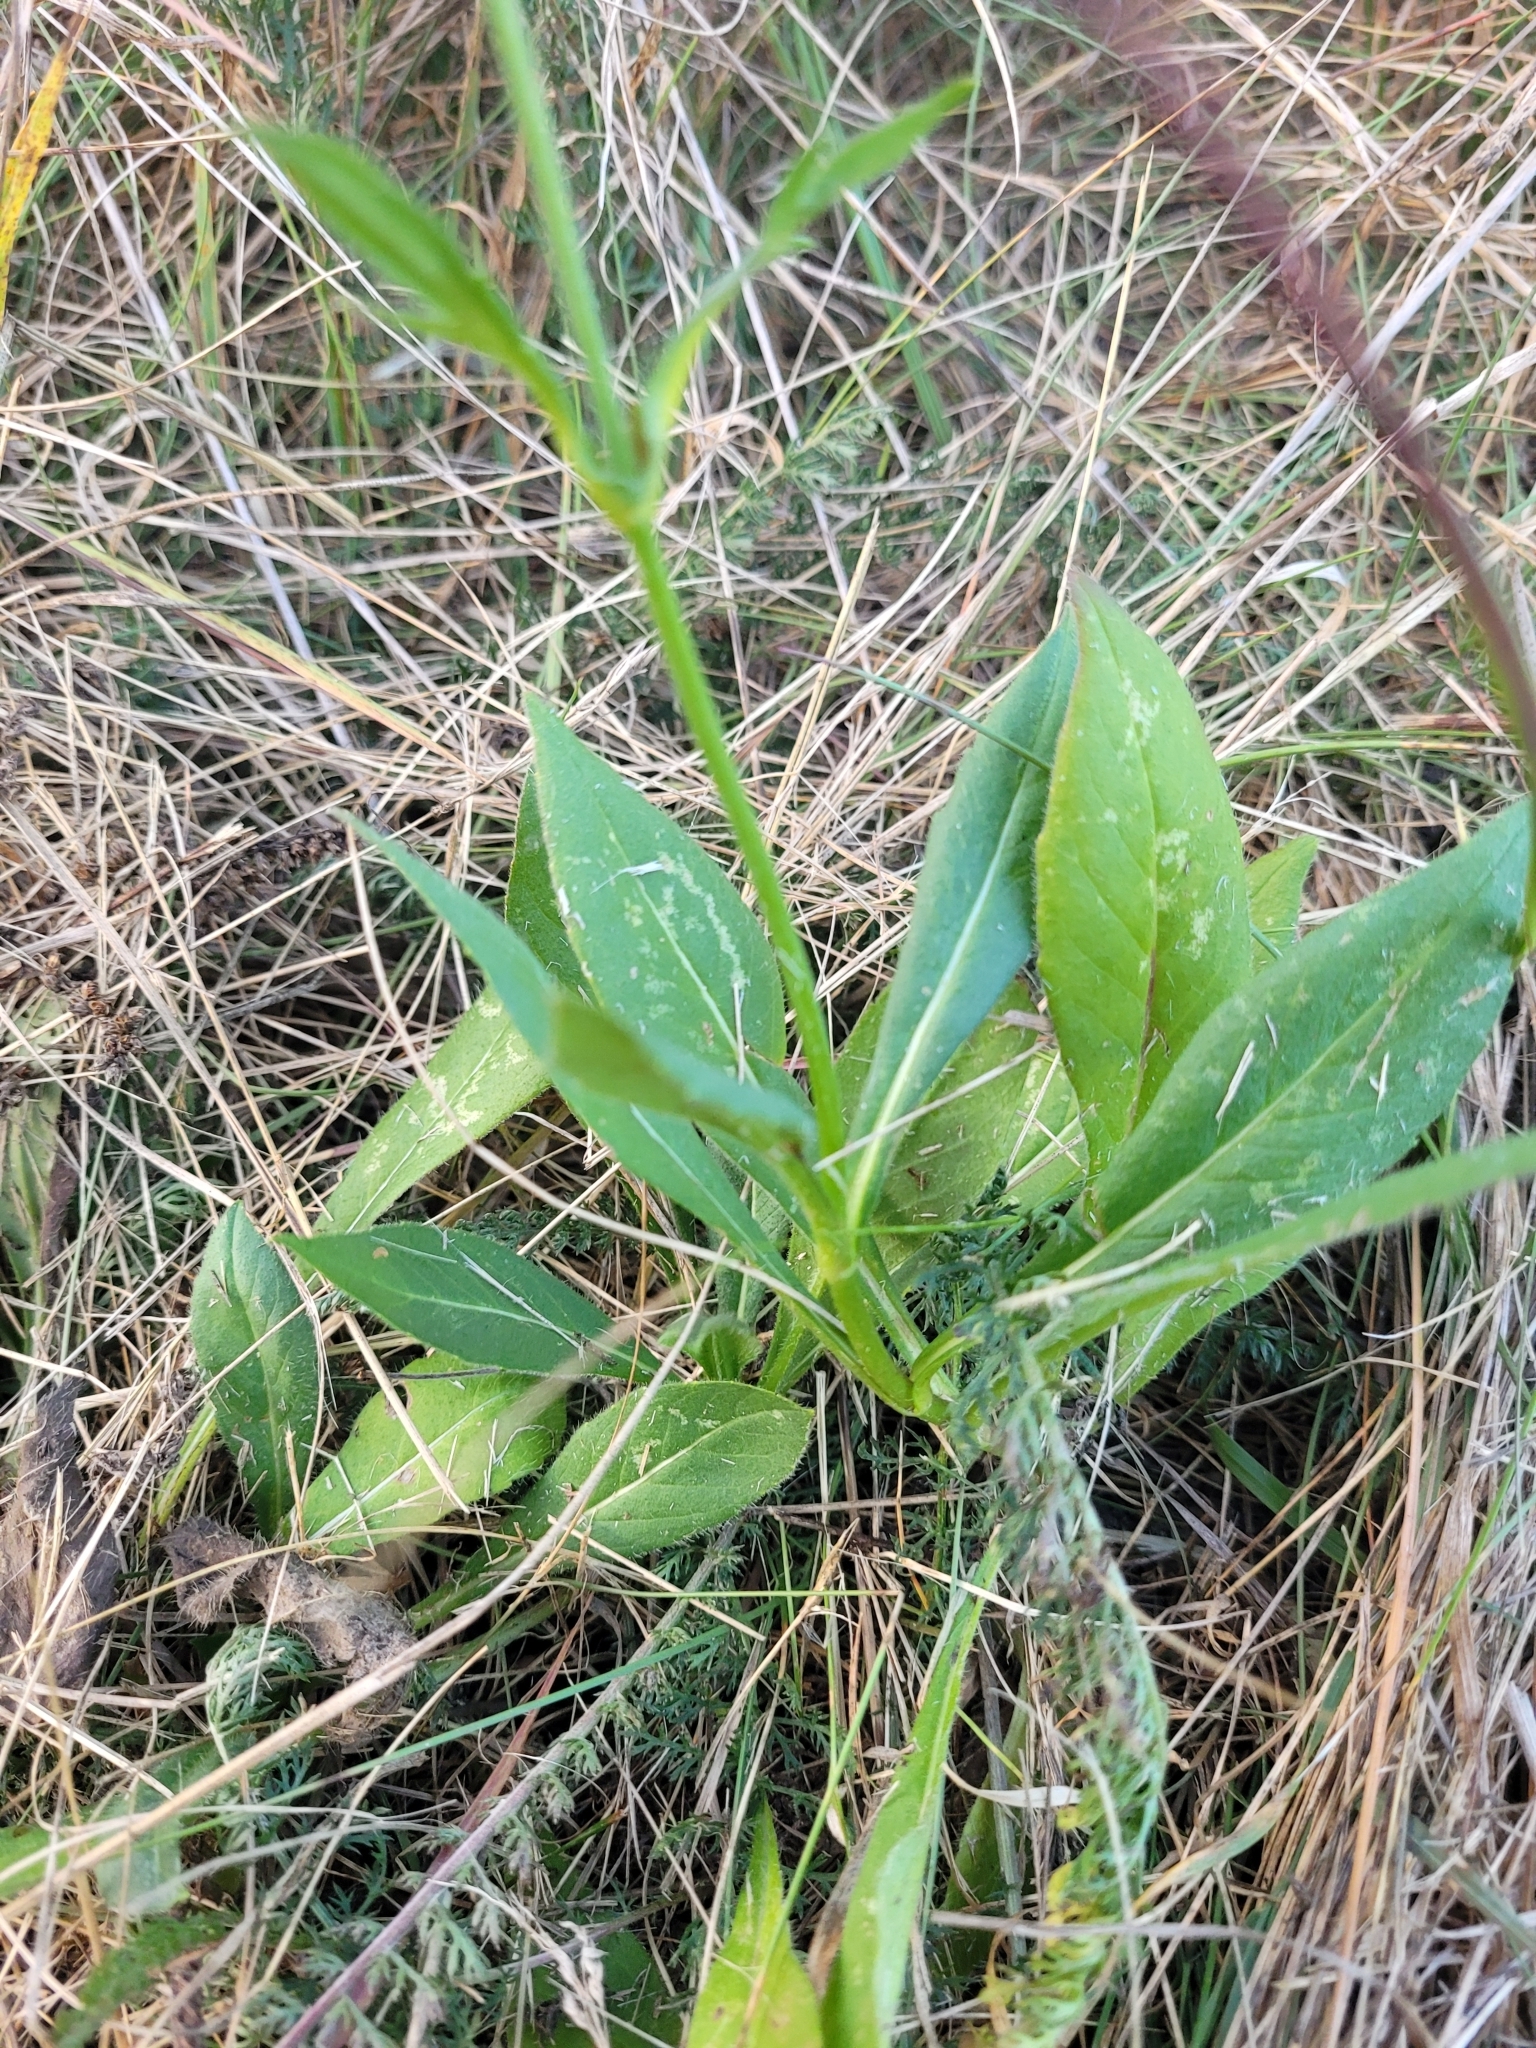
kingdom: Plantae
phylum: Tracheophyta
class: Magnoliopsida
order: Dipsacales
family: Caprifoliaceae
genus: Knautia
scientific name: Knautia arvensis
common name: Field scabiosa
